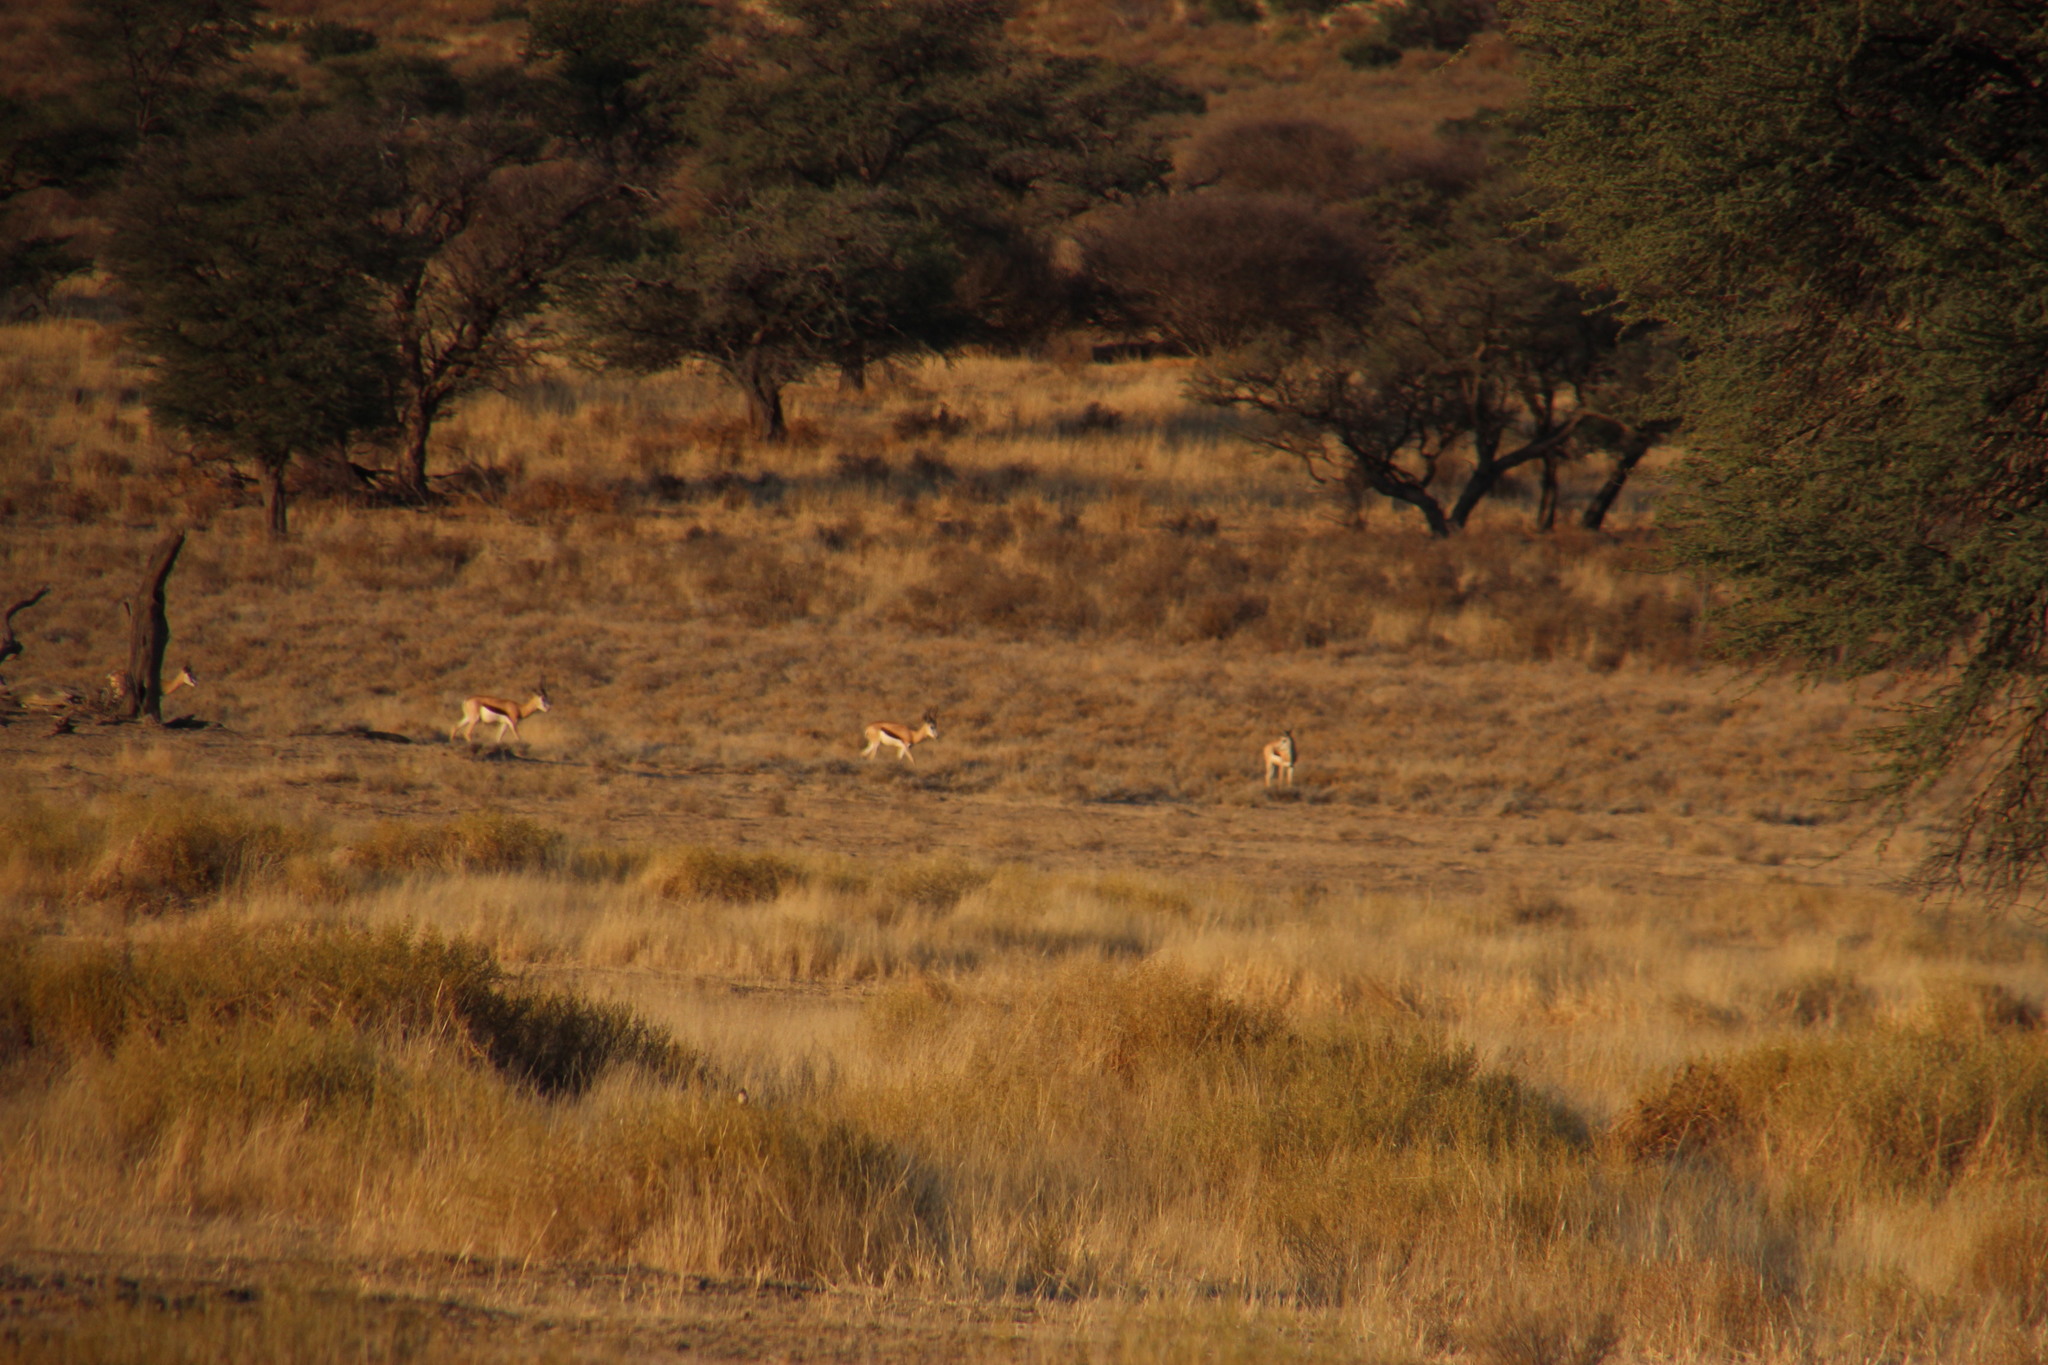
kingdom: Animalia
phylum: Chordata
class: Mammalia
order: Artiodactyla
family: Bovidae
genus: Antidorcas
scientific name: Antidorcas marsupialis
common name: Springbok
